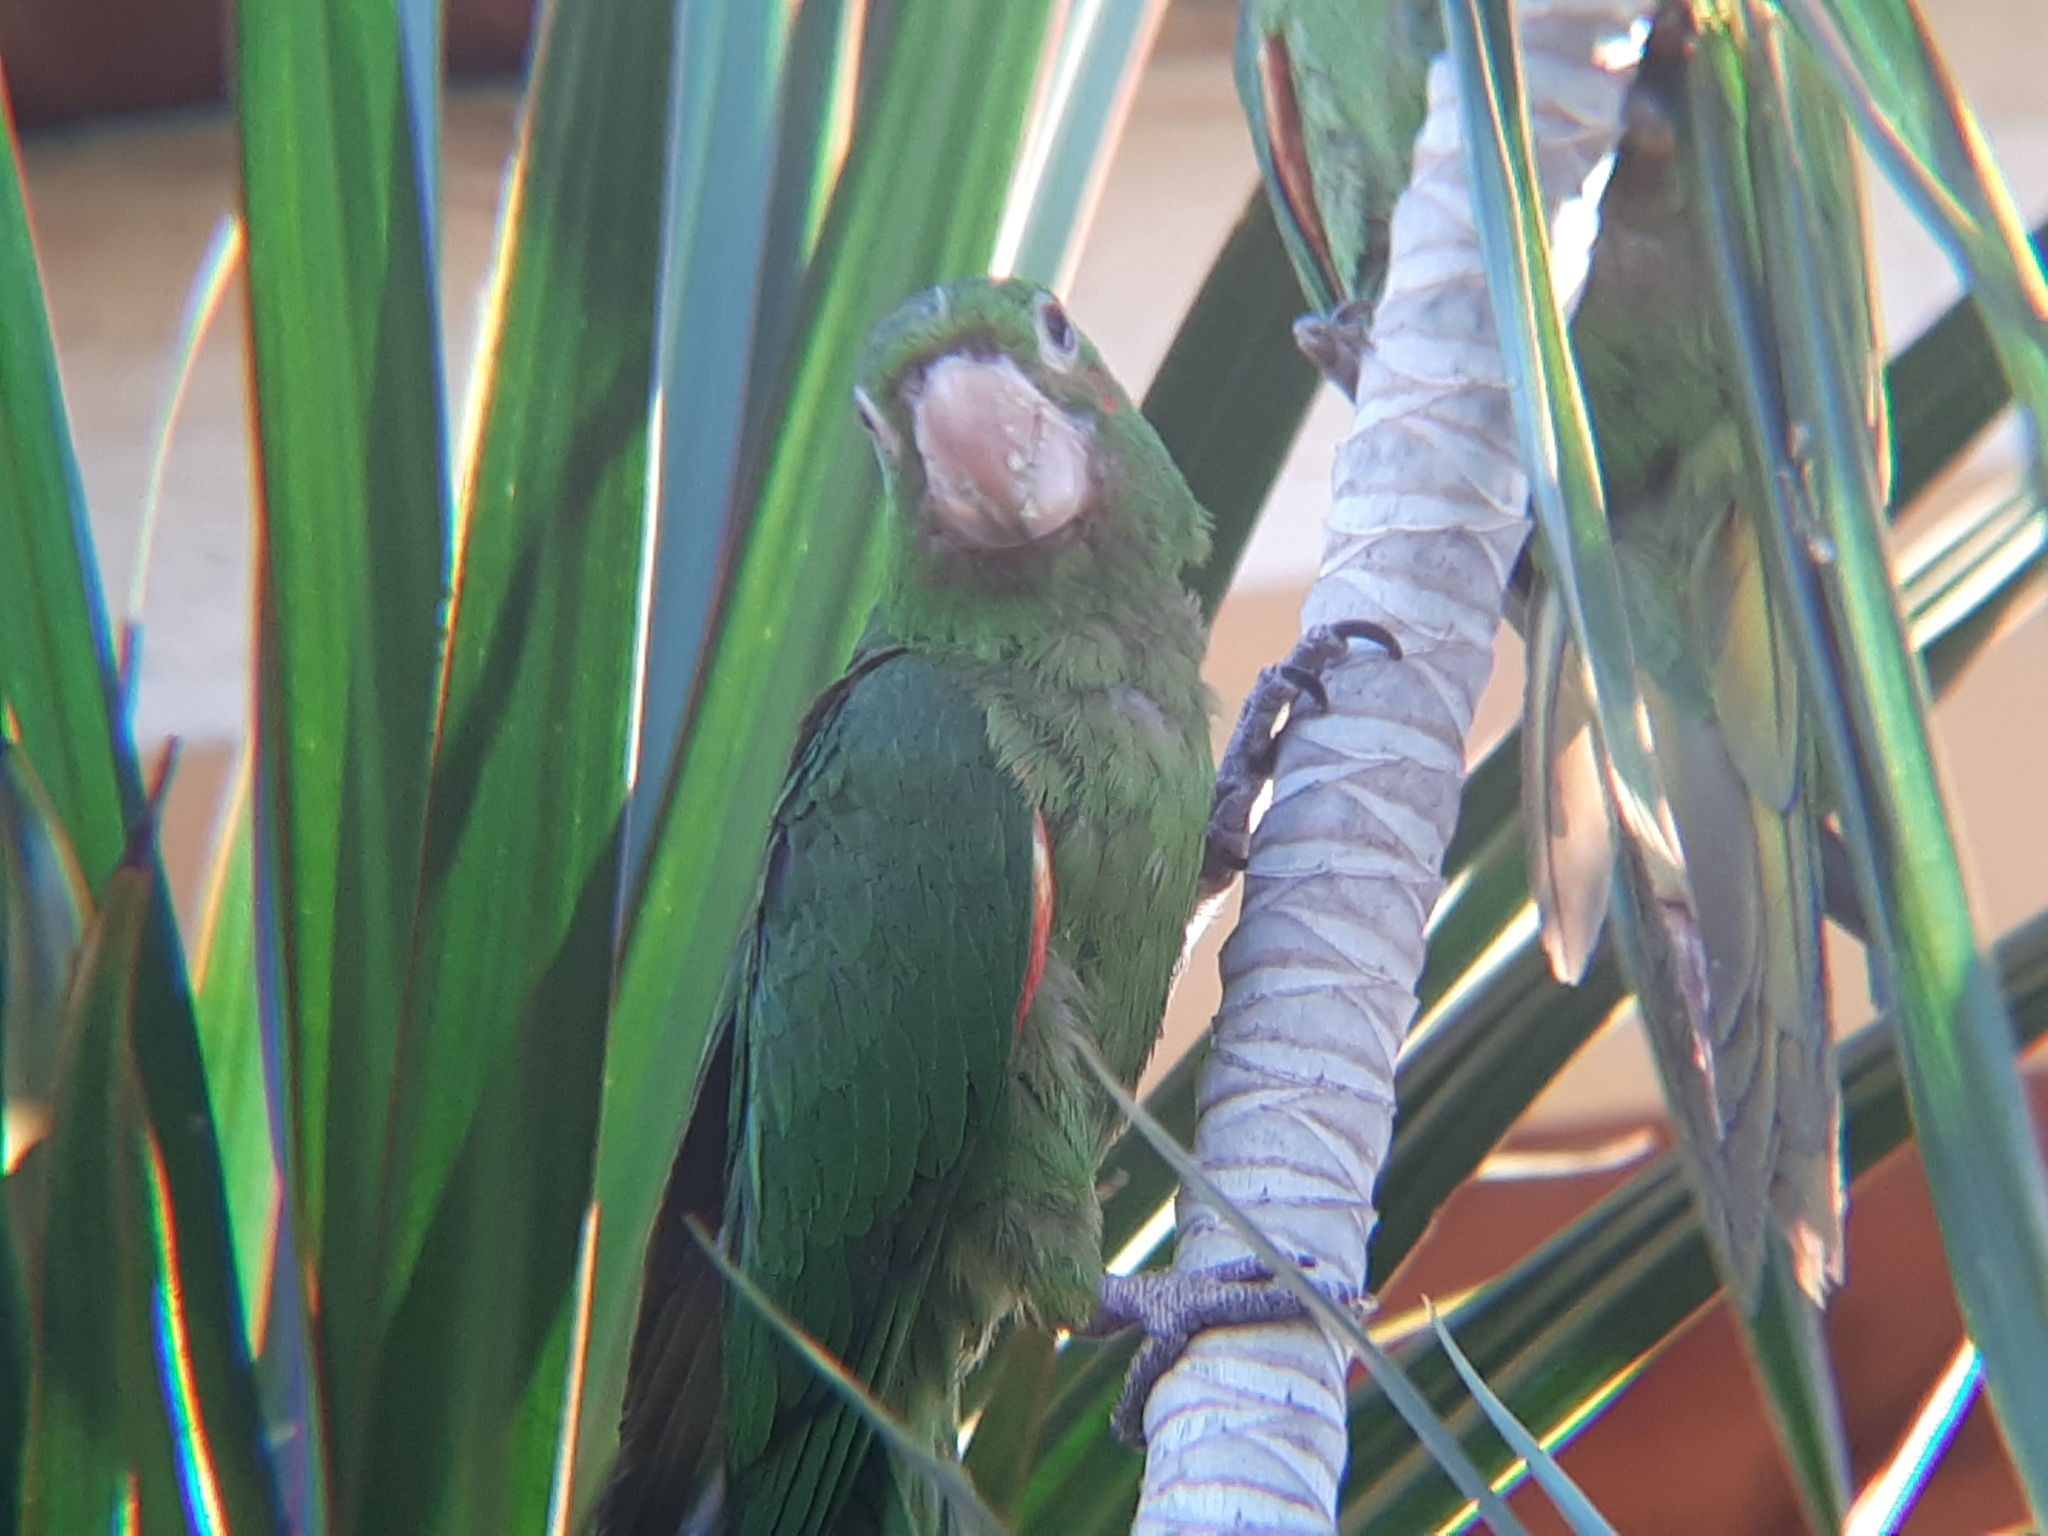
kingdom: Animalia
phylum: Chordata
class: Aves
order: Psittaciformes
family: Psittacidae
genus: Aratinga
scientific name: Aratinga leucophthalma
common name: White-eyed parakeet
